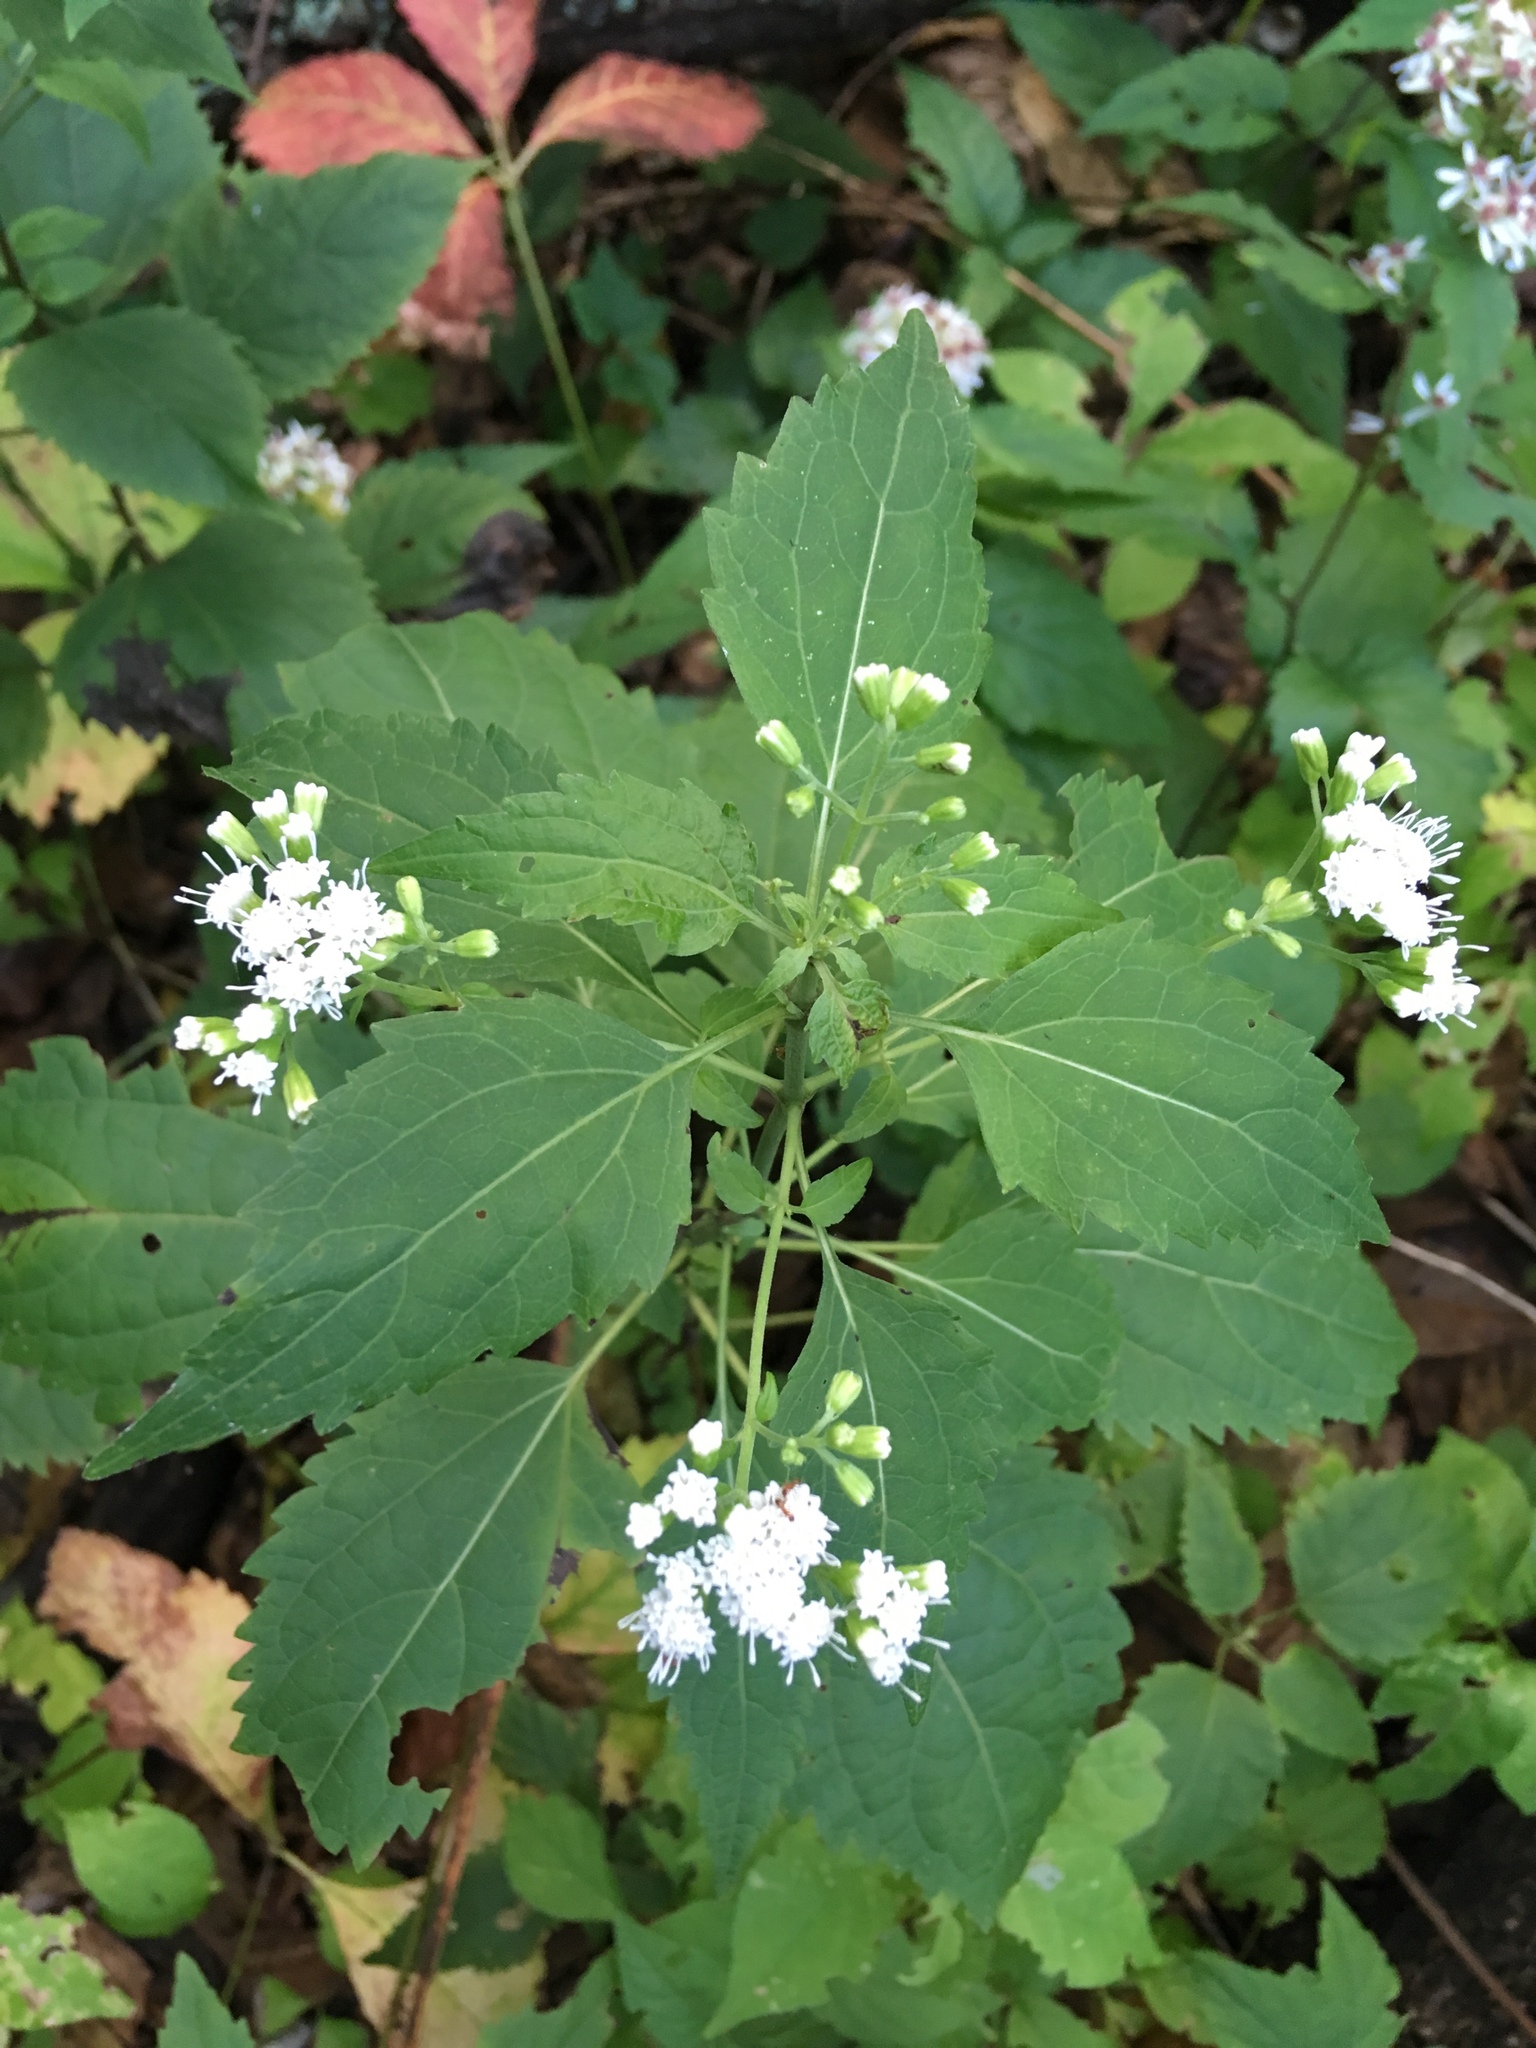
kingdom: Plantae
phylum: Tracheophyta
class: Magnoliopsida
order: Asterales
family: Asteraceae
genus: Ageratina
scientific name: Ageratina altissima
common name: White snakeroot
